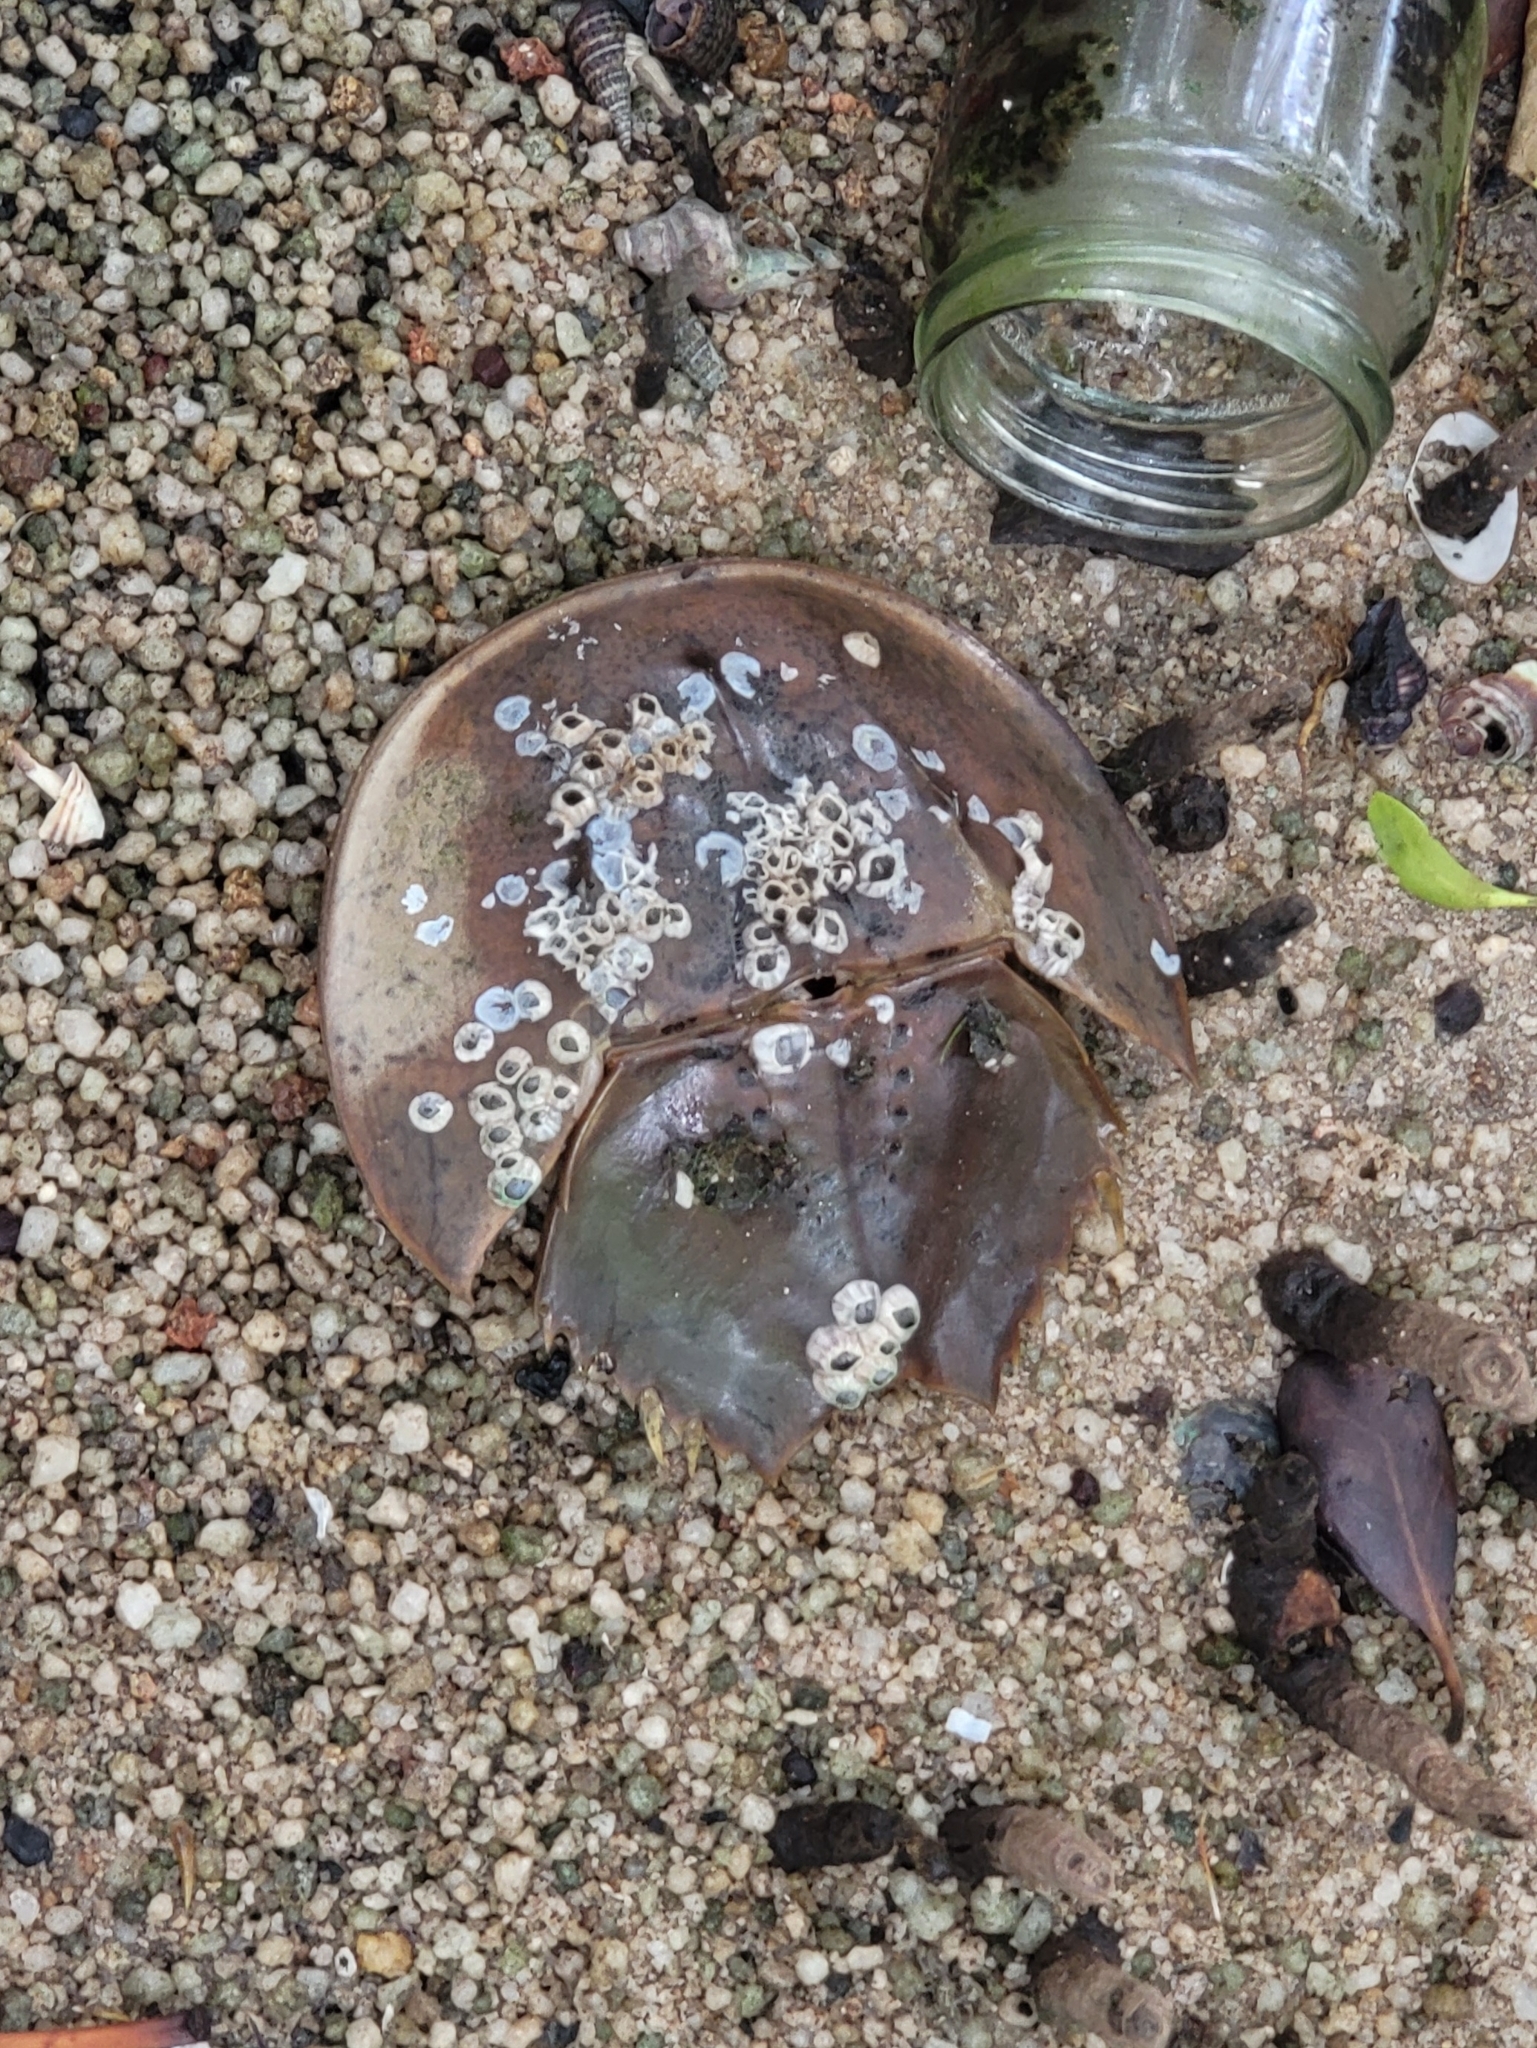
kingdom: Animalia
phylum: Arthropoda
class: Merostomata
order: Xiphosurida
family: Limulidae
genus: Carcinoscorpius
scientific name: Carcinoscorpius rotundicauda
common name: Horseshoe crab
